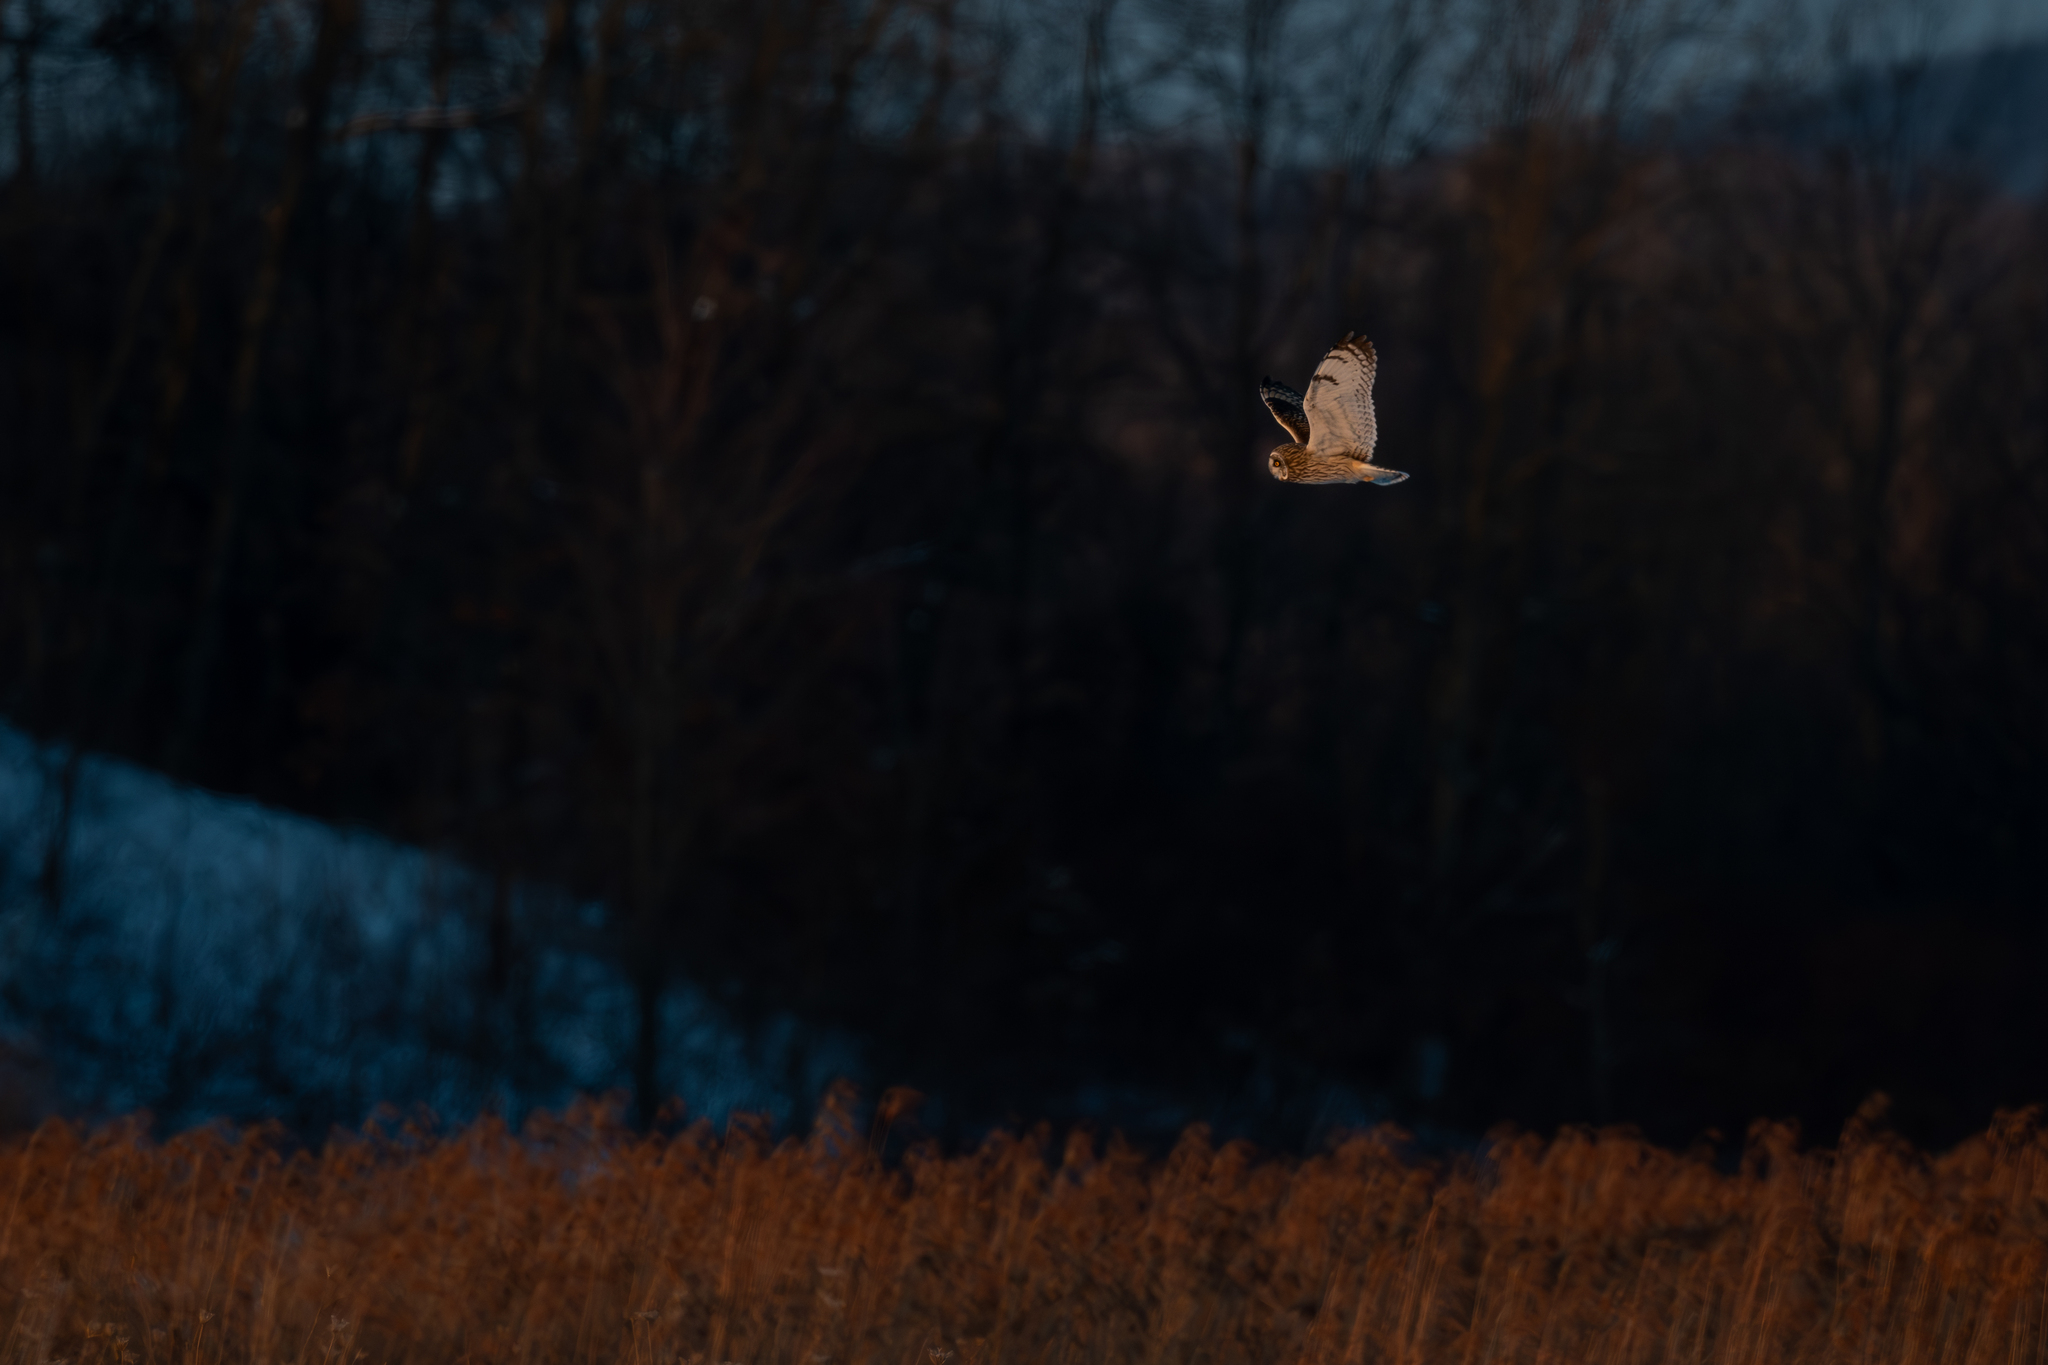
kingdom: Animalia
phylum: Chordata
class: Aves
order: Strigiformes
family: Strigidae
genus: Asio
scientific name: Asio flammeus
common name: Short-eared owl
